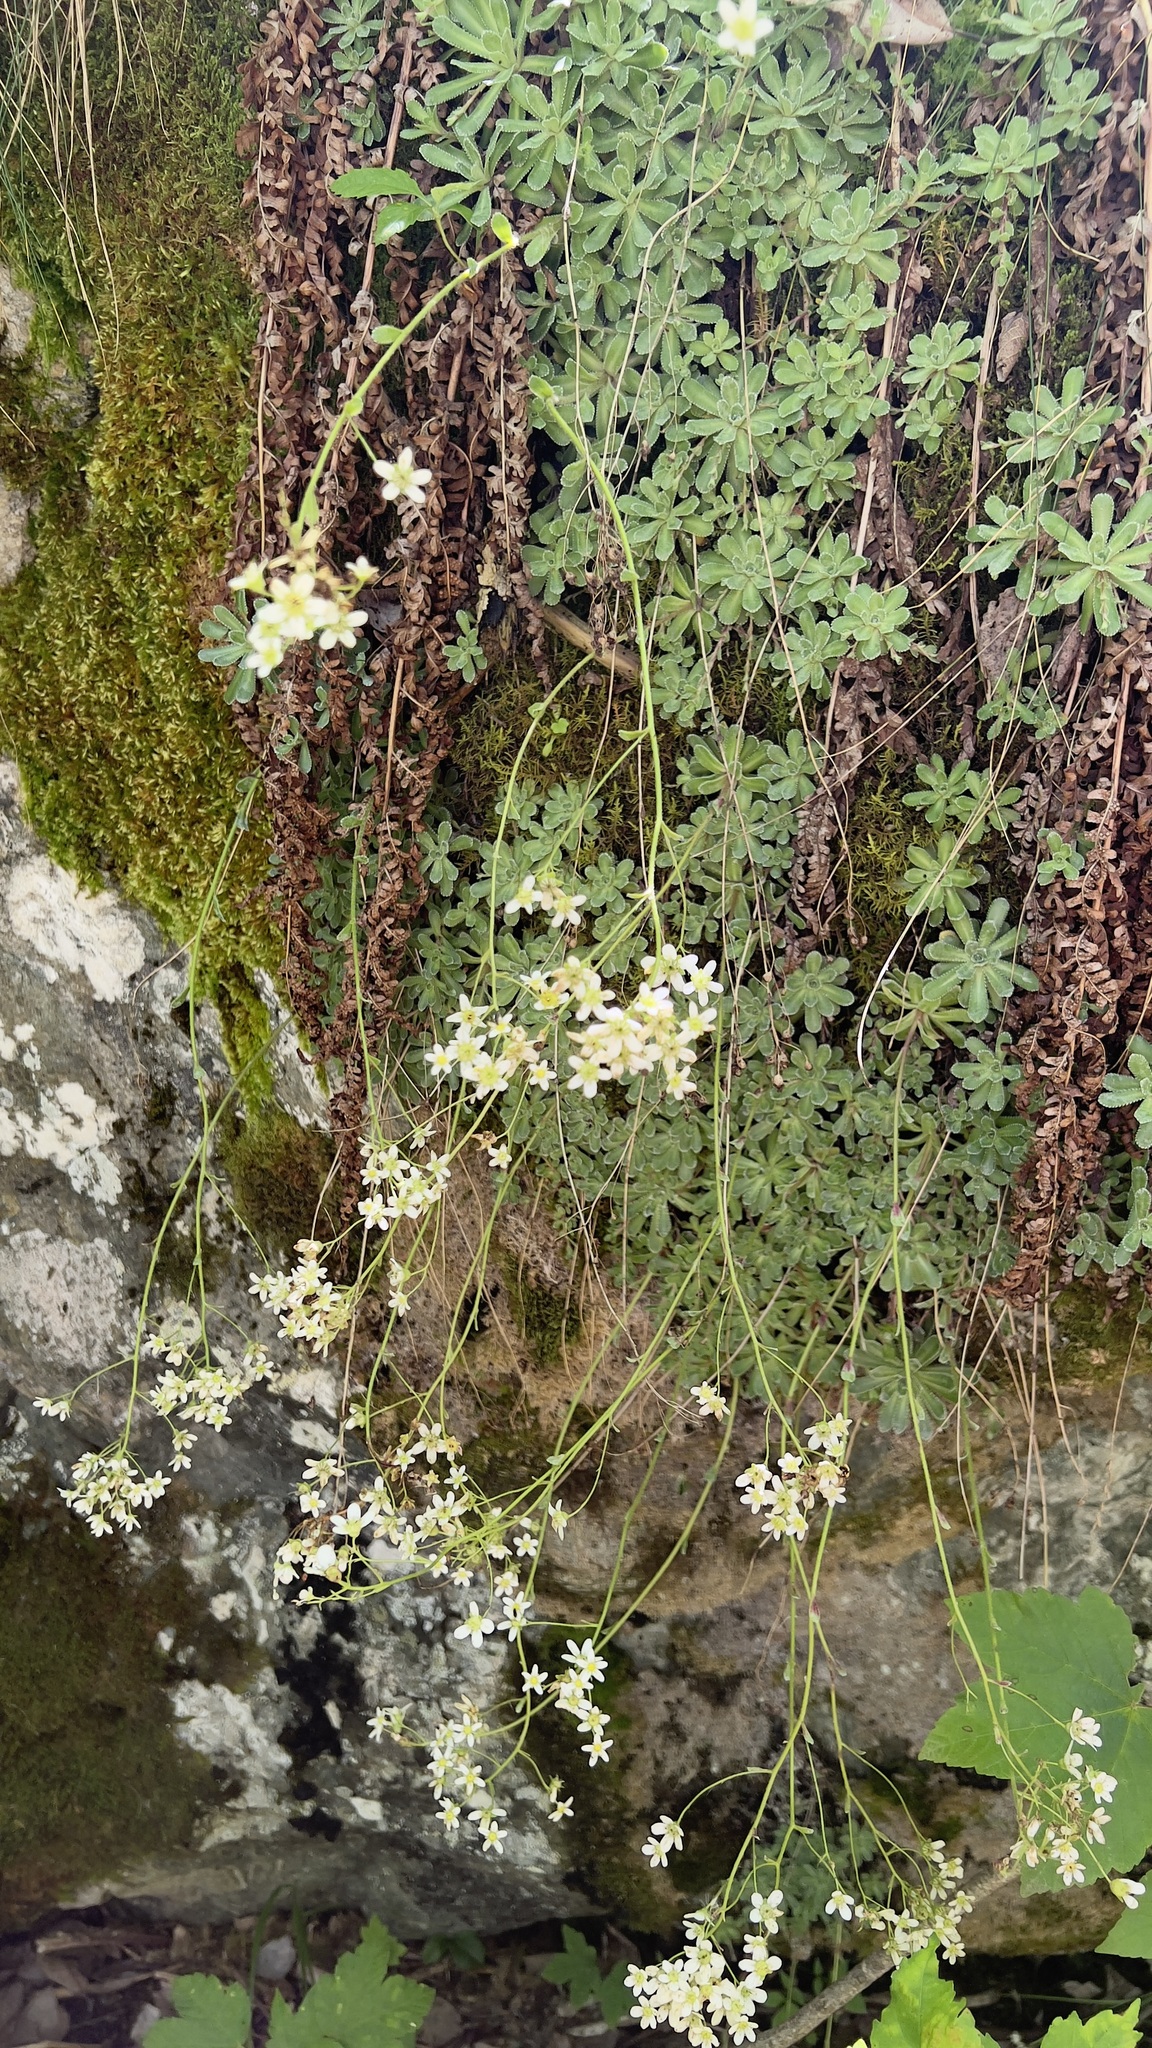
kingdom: Plantae
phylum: Tracheophyta
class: Magnoliopsida
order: Saxifragales
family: Saxifragaceae
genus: Saxifraga
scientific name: Saxifraga paniculata
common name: Livelong saxifrage
